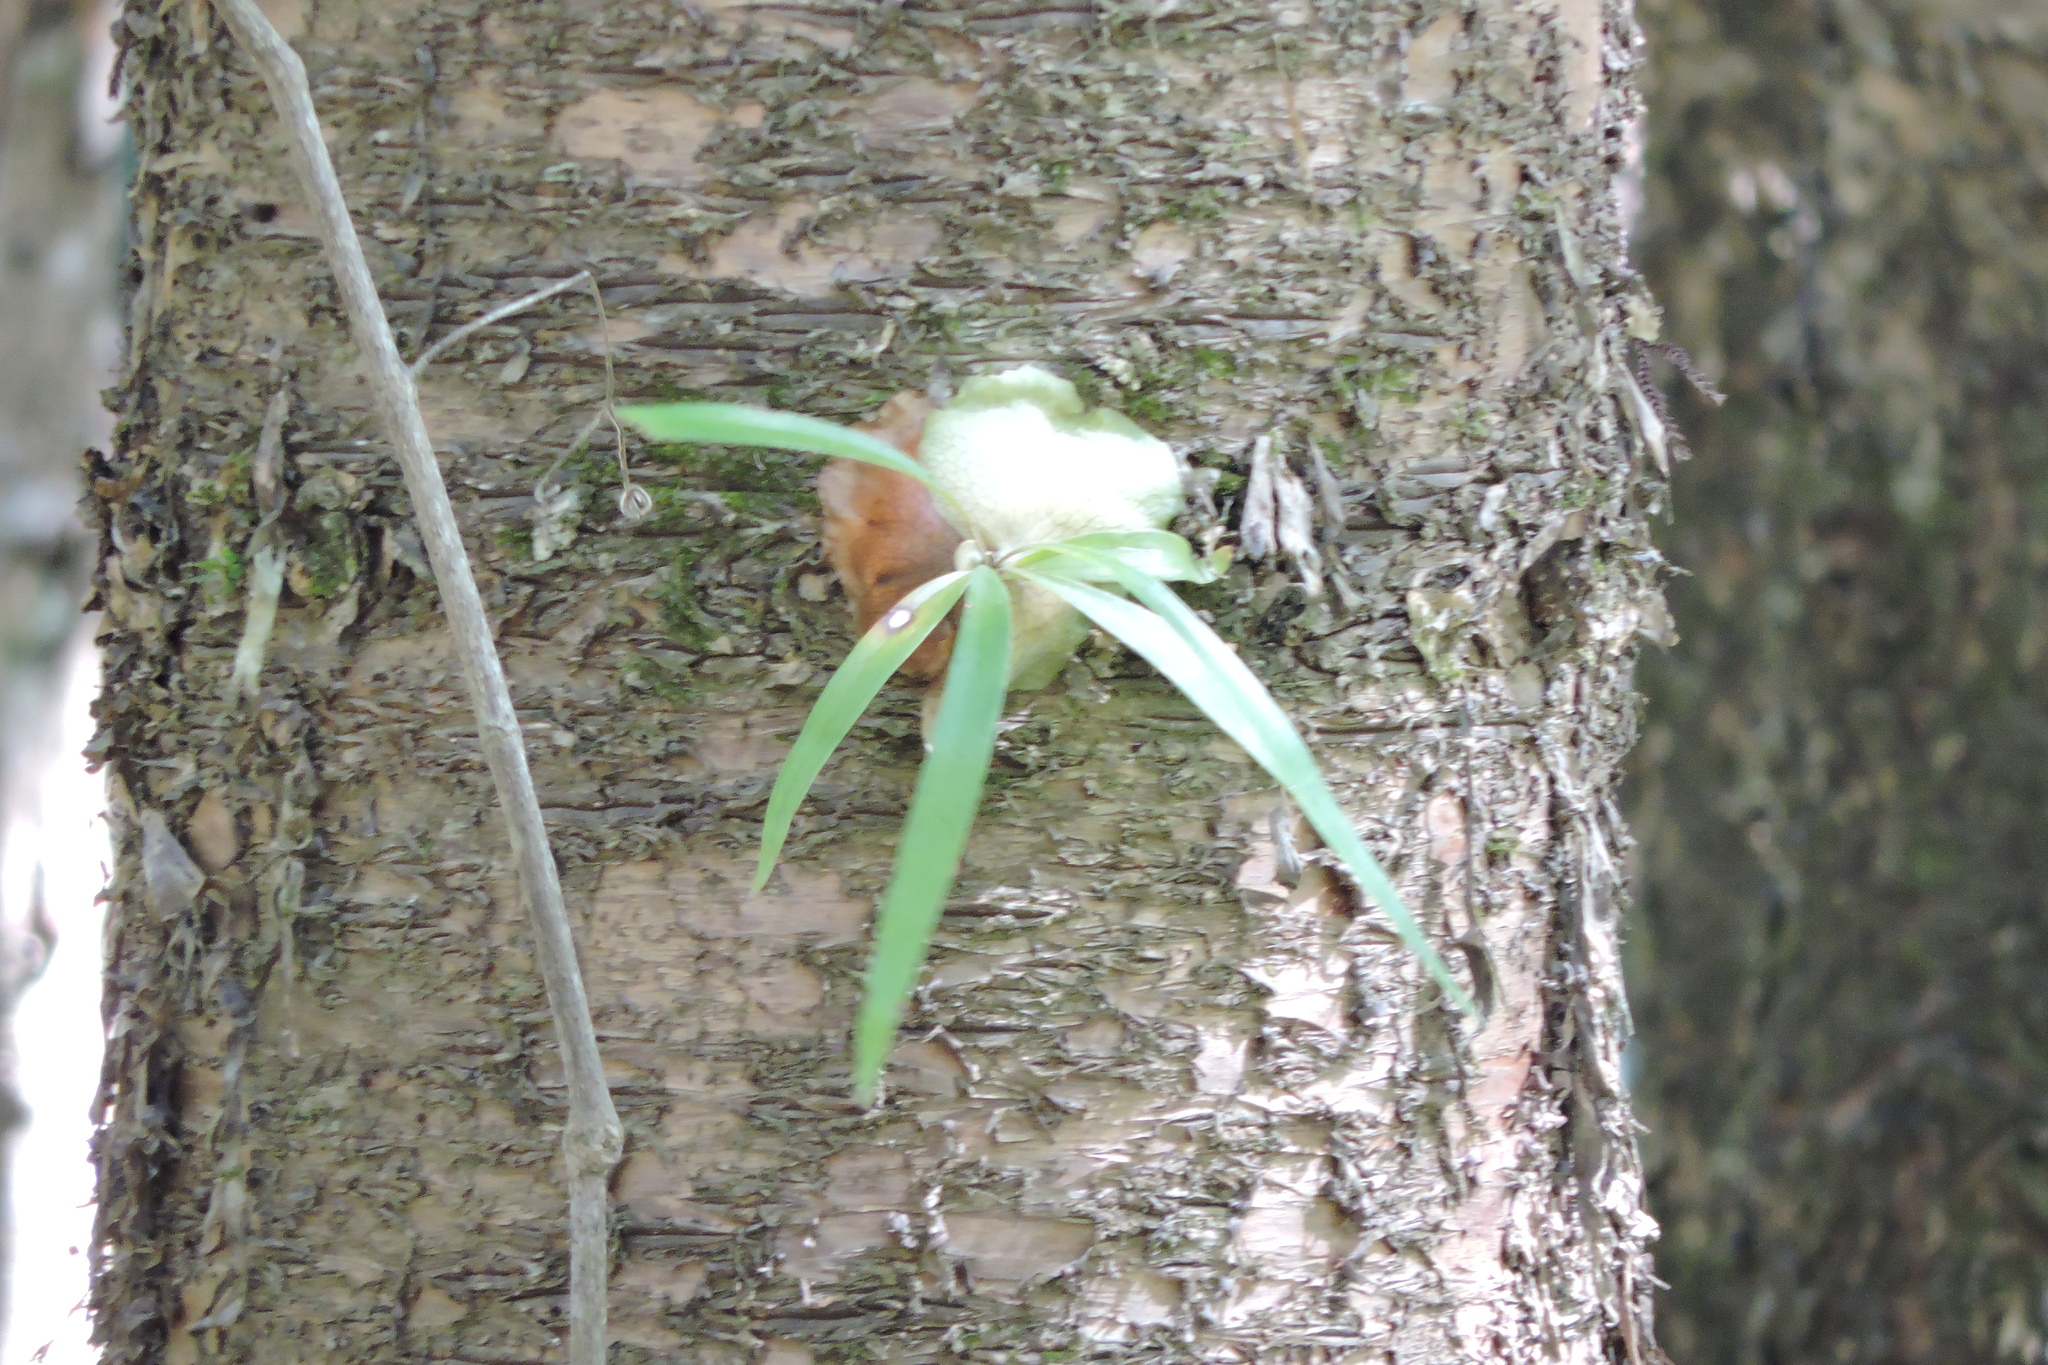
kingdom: Plantae
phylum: Tracheophyta
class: Polypodiopsida
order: Polypodiales
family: Polypodiaceae
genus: Platycerium
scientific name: Platycerium bifurcatum
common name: Elkhorn fern
